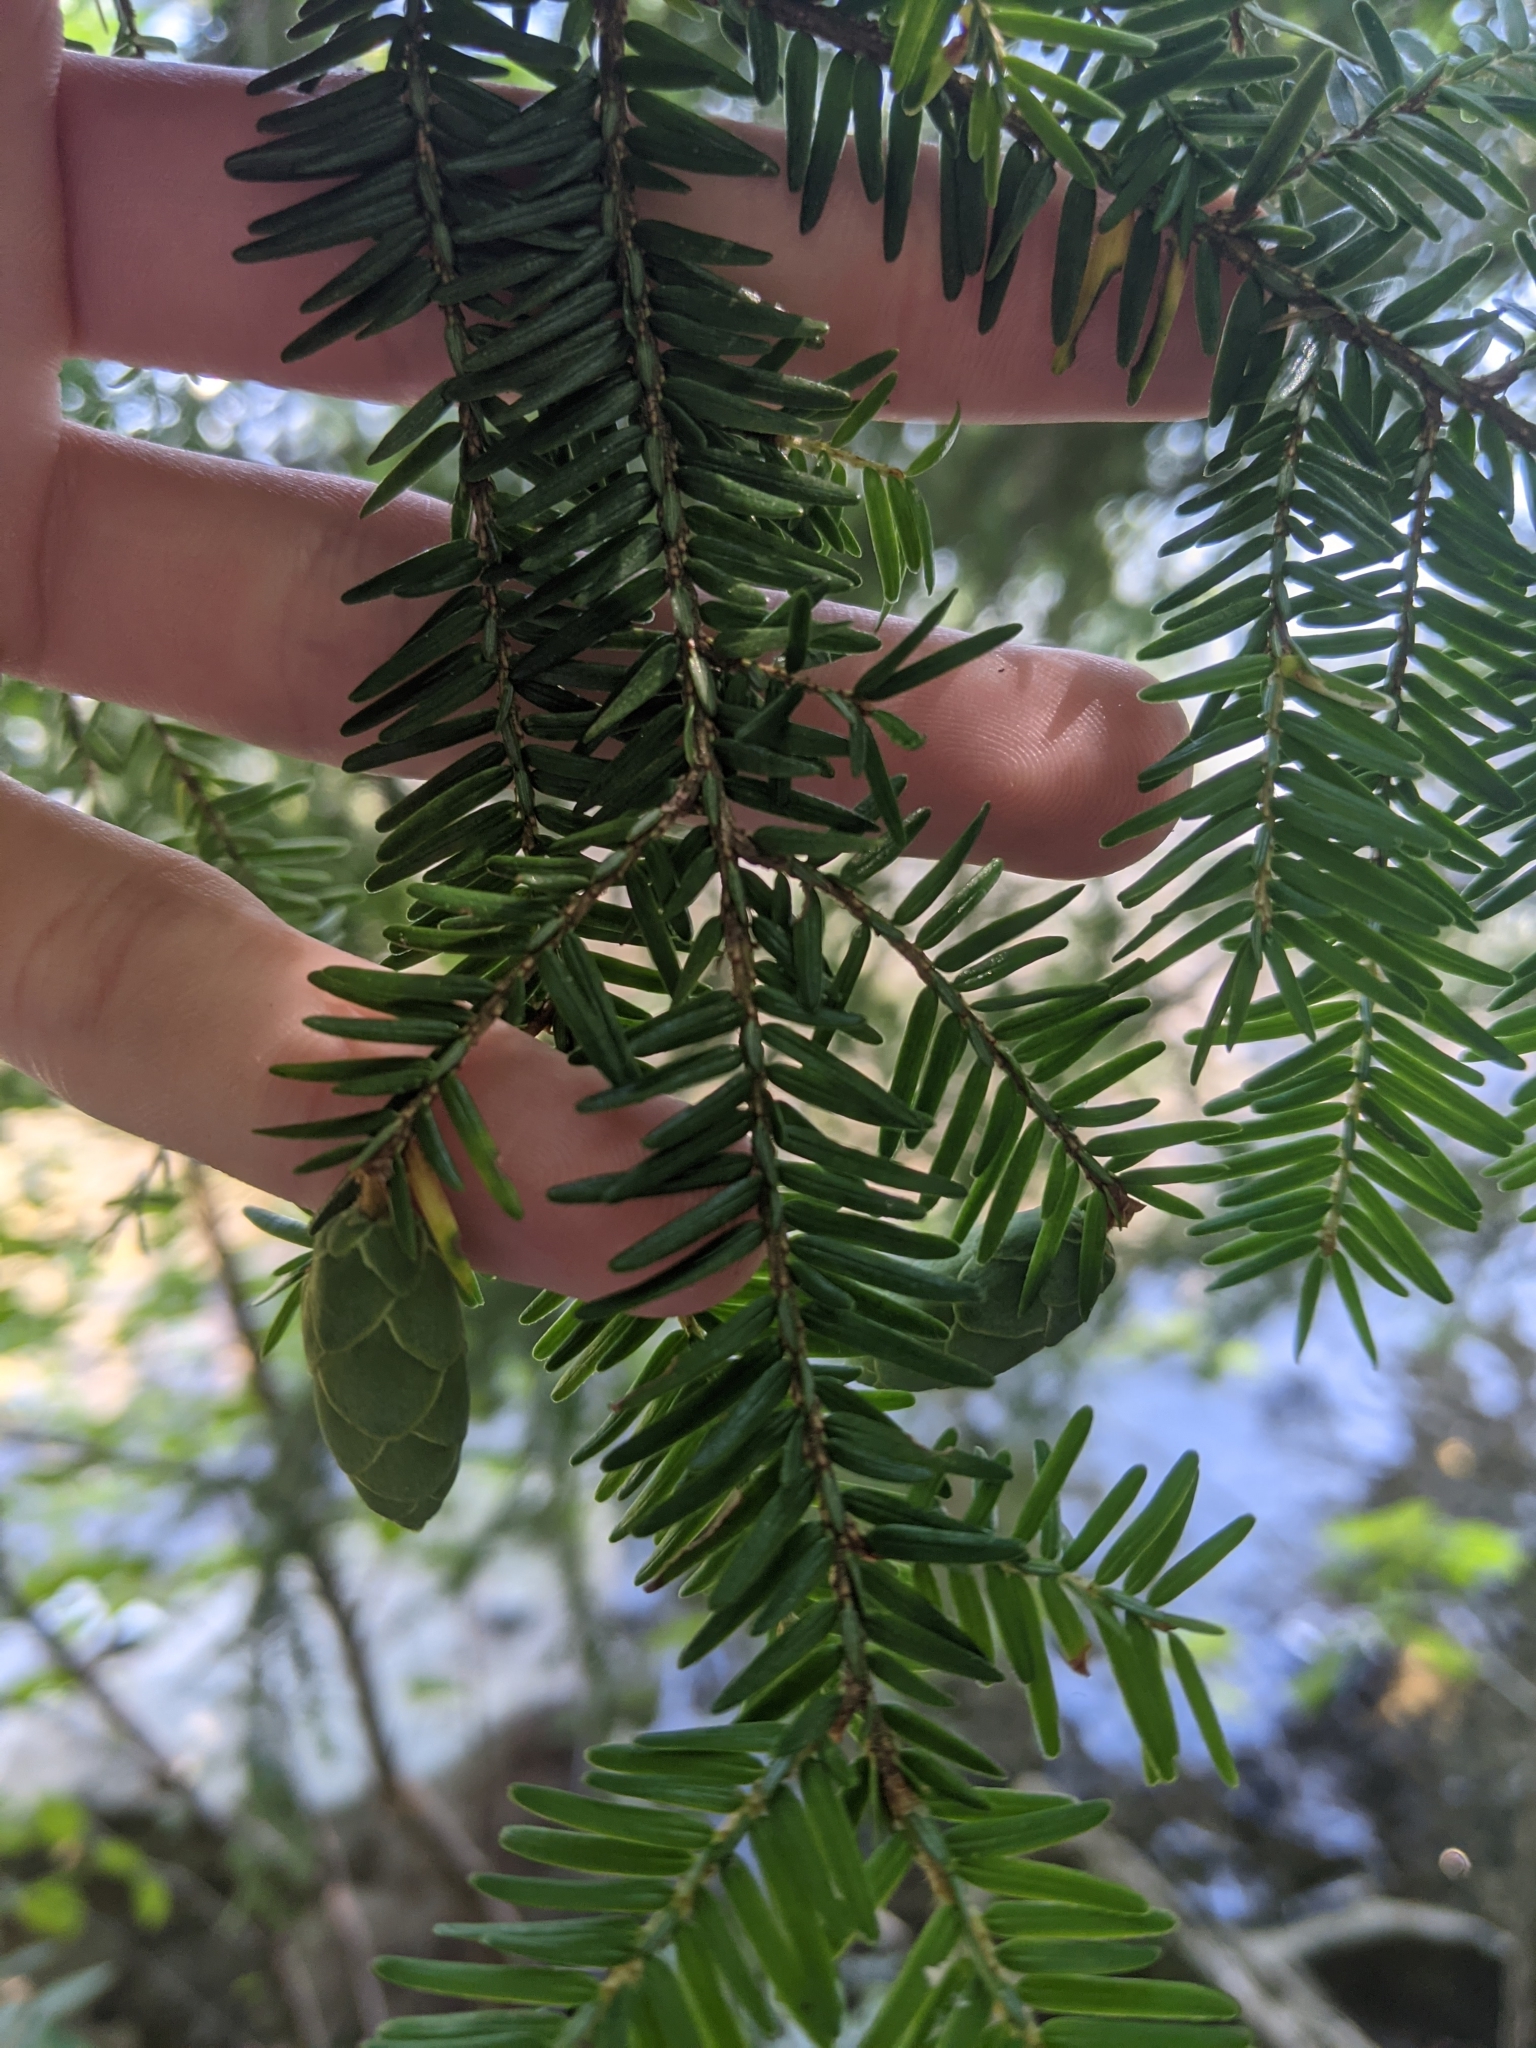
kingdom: Plantae
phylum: Tracheophyta
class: Pinopsida
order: Pinales
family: Pinaceae
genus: Tsuga
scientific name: Tsuga canadensis
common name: Eastern hemlock
